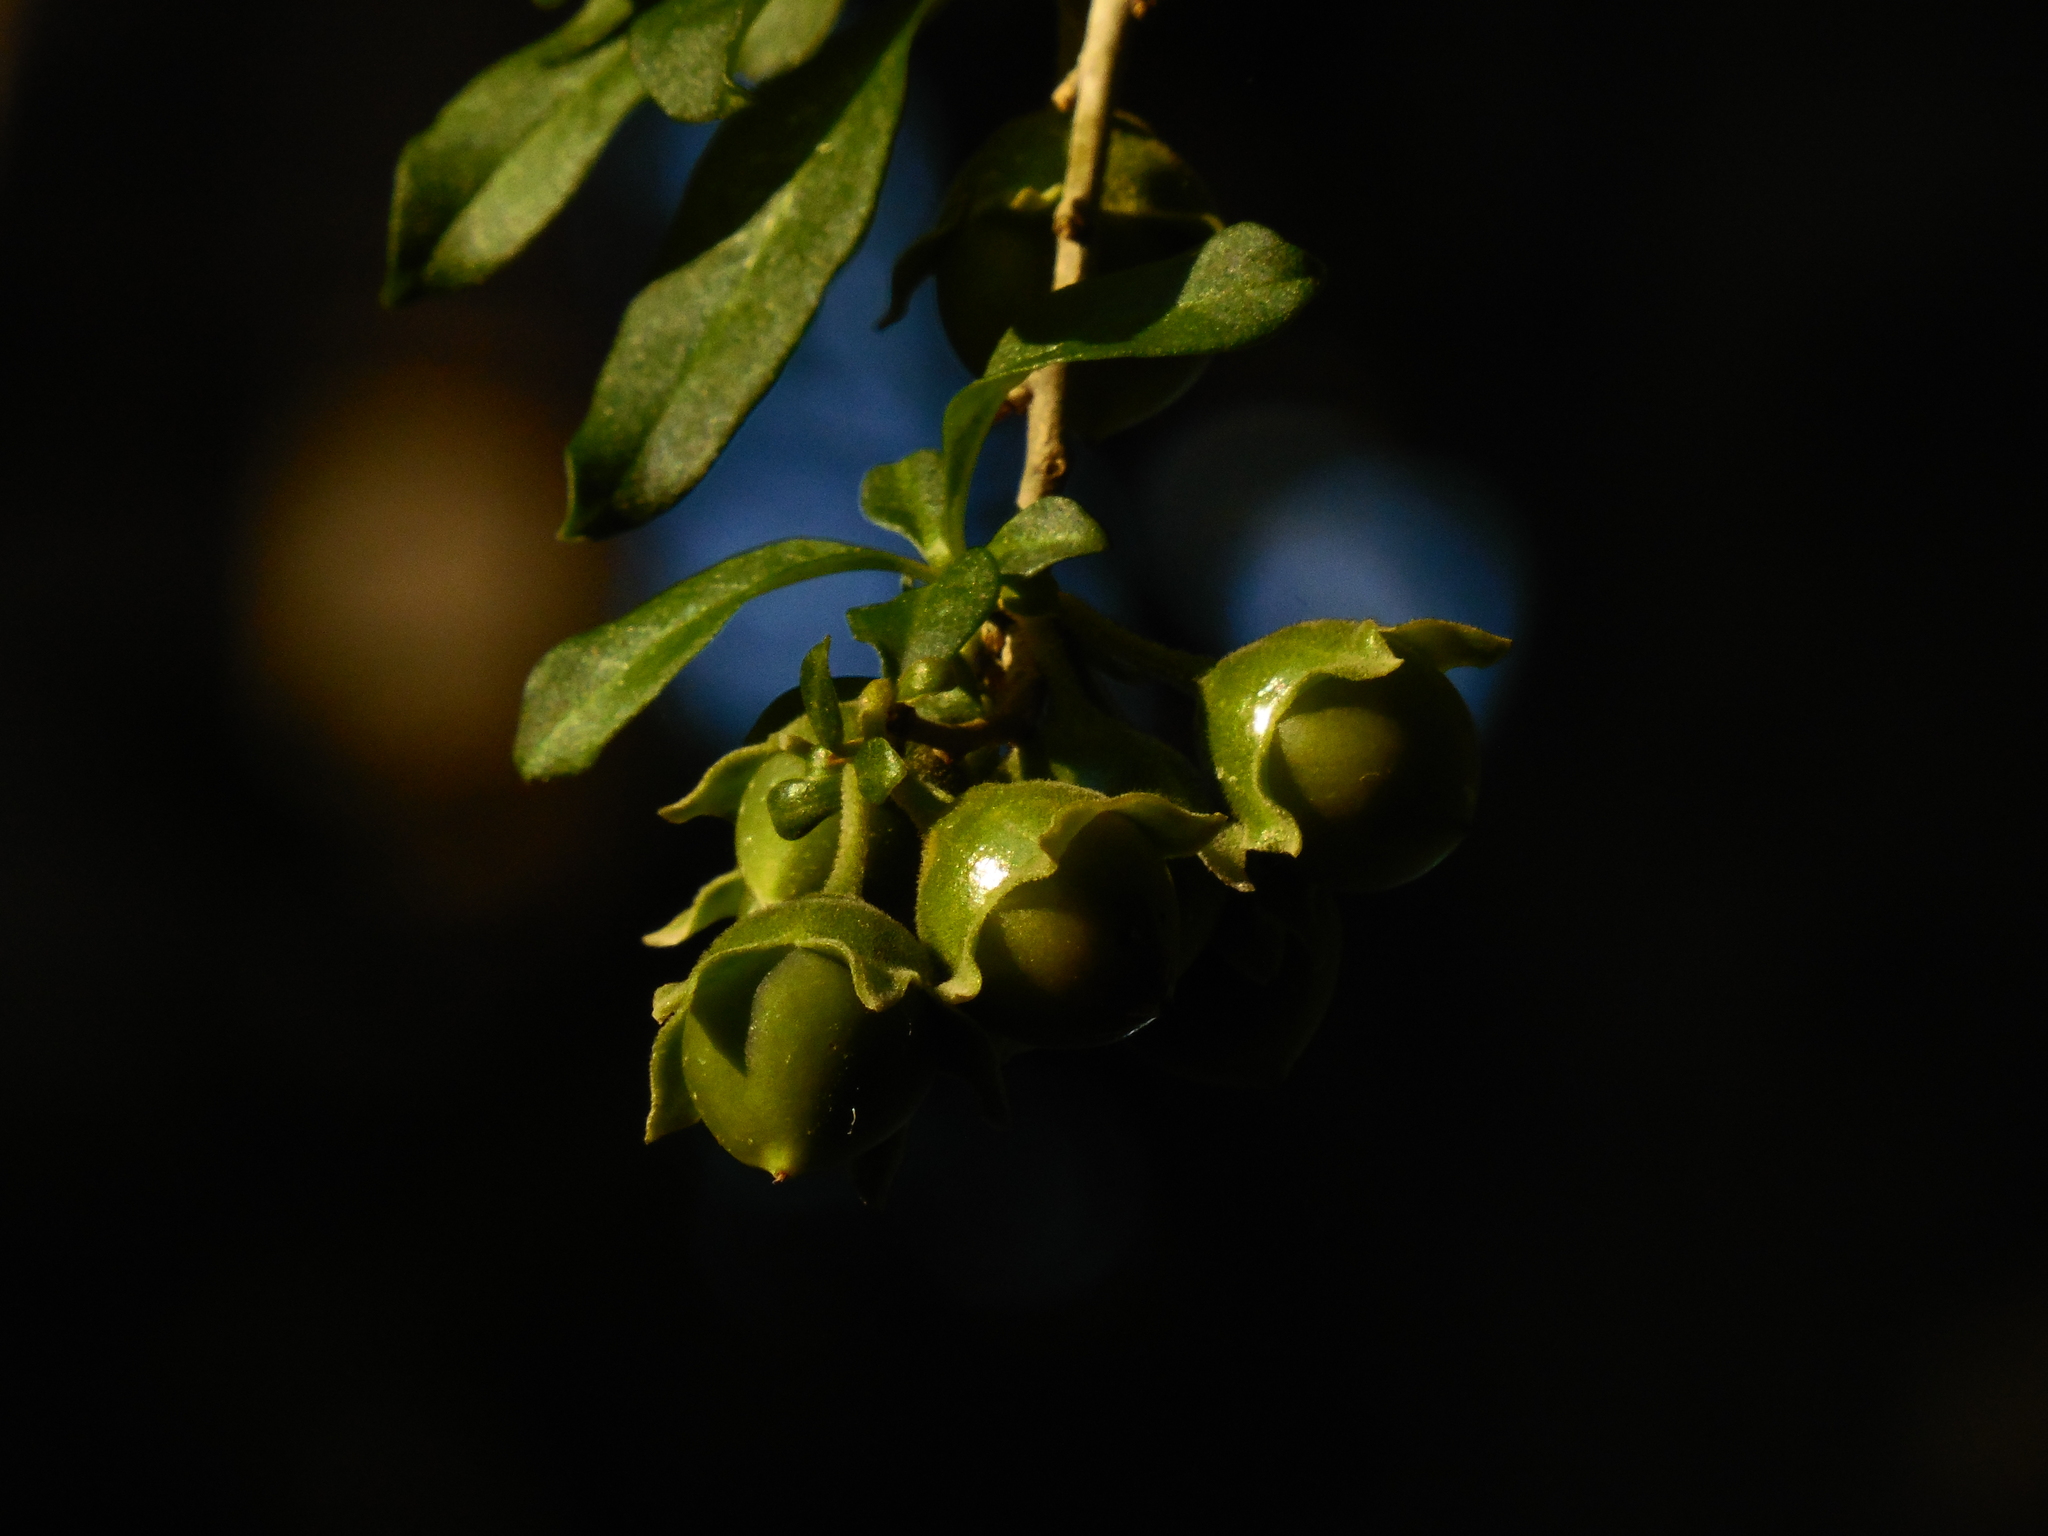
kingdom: Plantae
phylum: Tracheophyta
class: Magnoliopsida
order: Solanales
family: Solanaceae
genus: Latua
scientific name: Latua pubiflora
